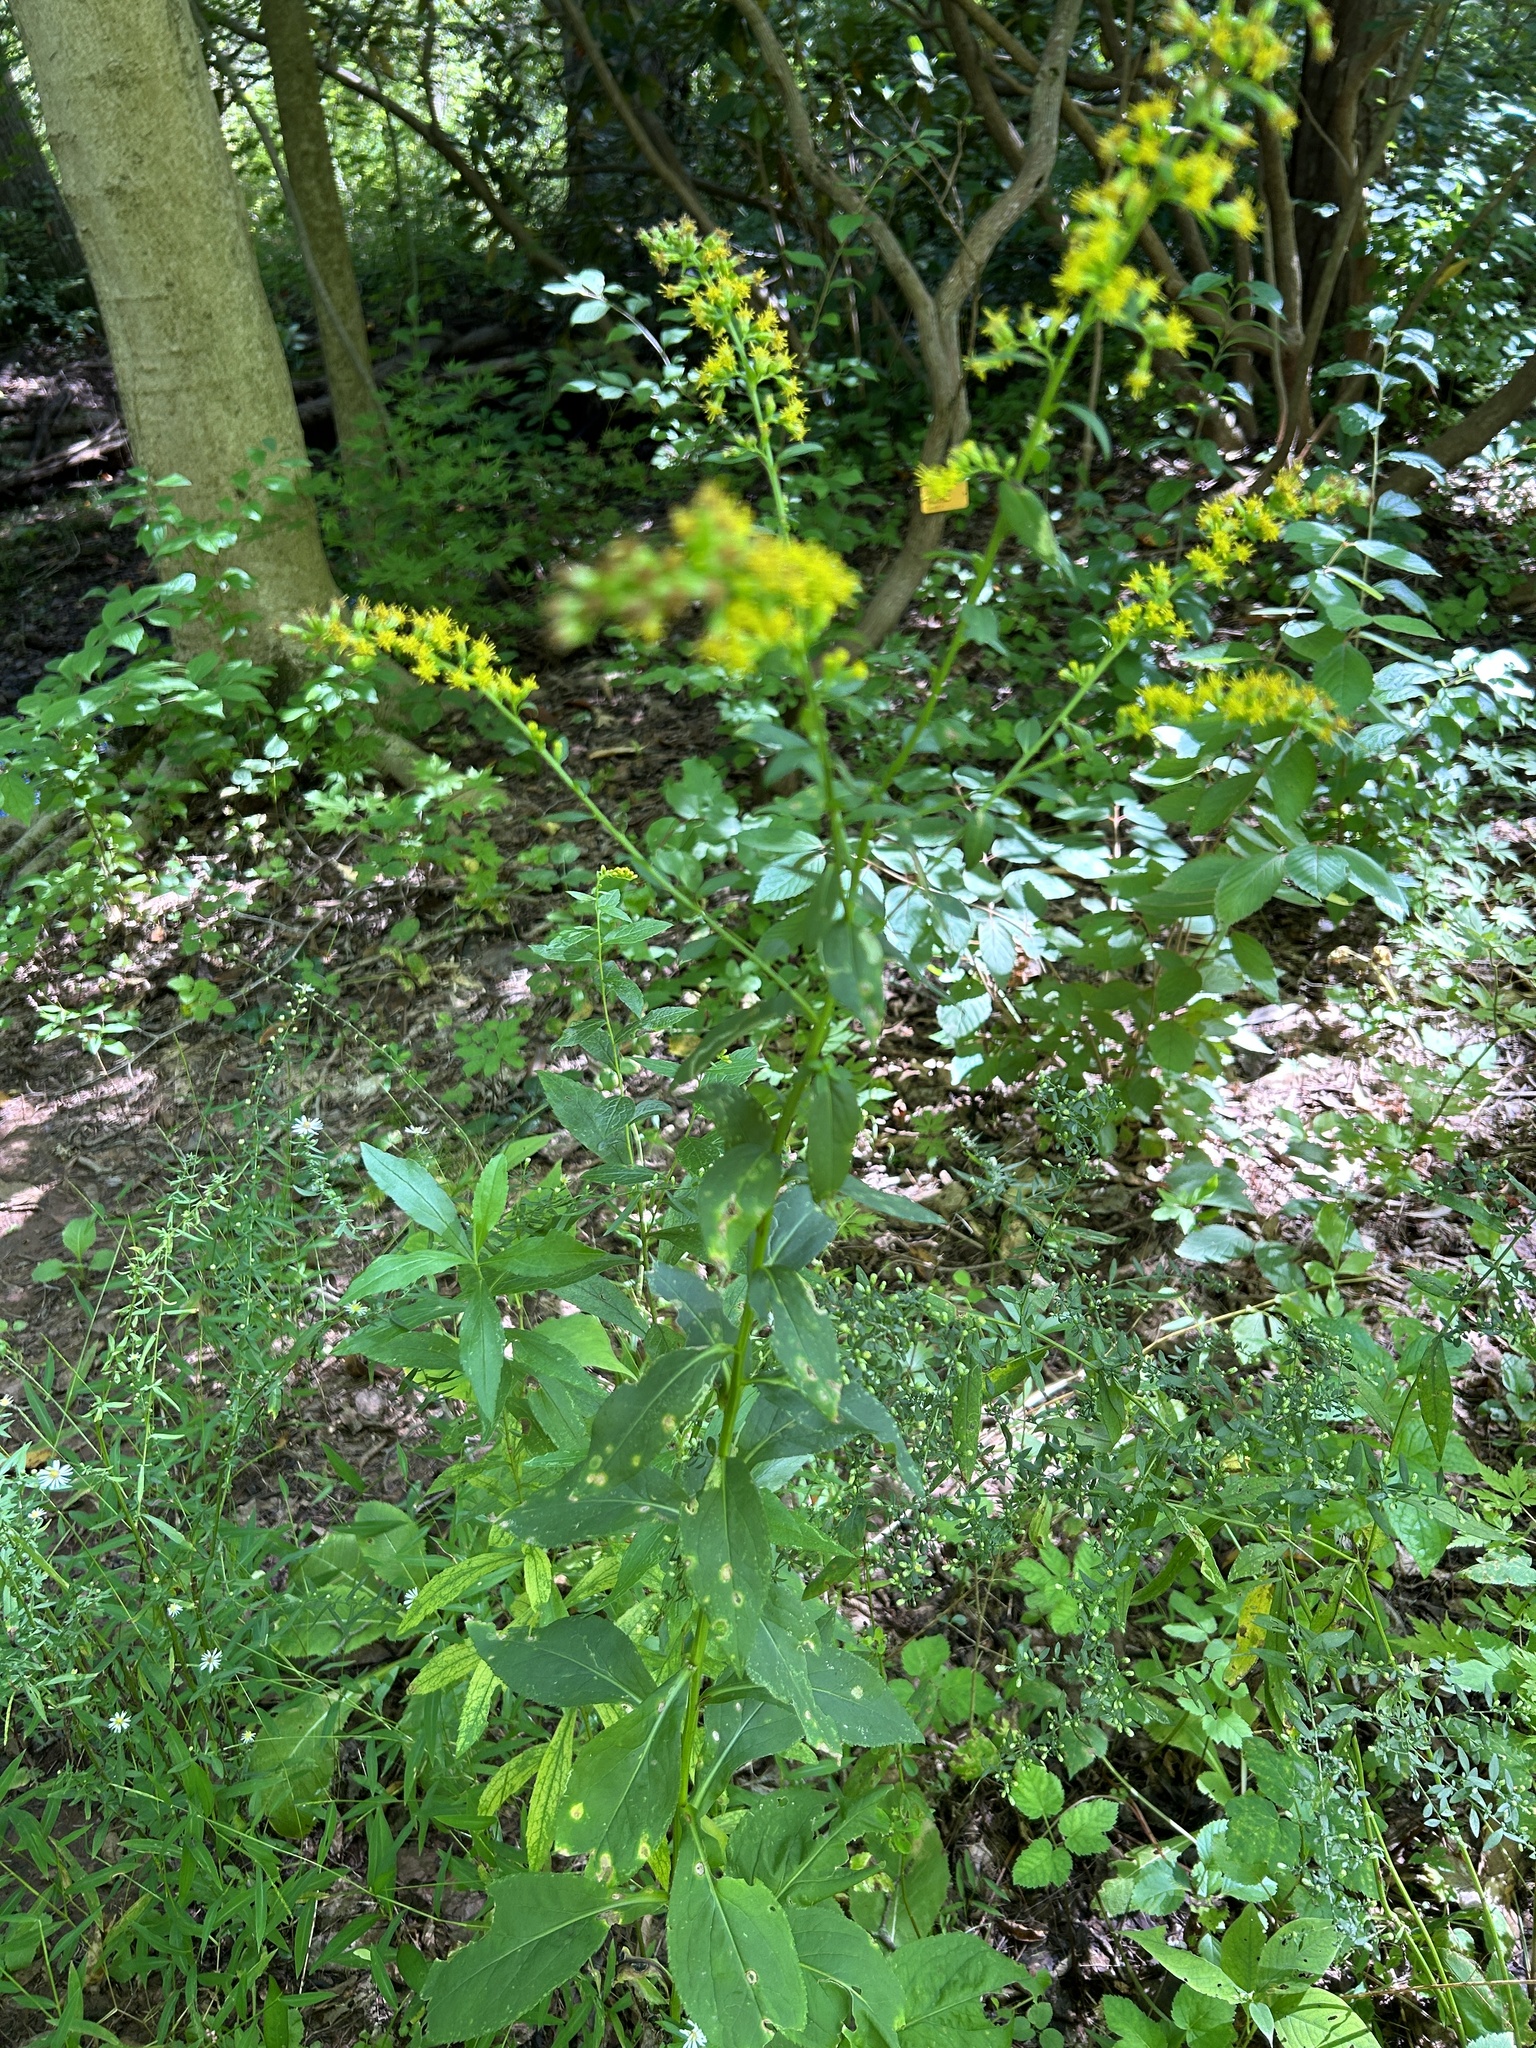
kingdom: Plantae
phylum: Tracheophyta
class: Magnoliopsida
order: Asterales
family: Asteraceae
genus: Solidago
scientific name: Solidago patula
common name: Rough-leaf goldenrod
